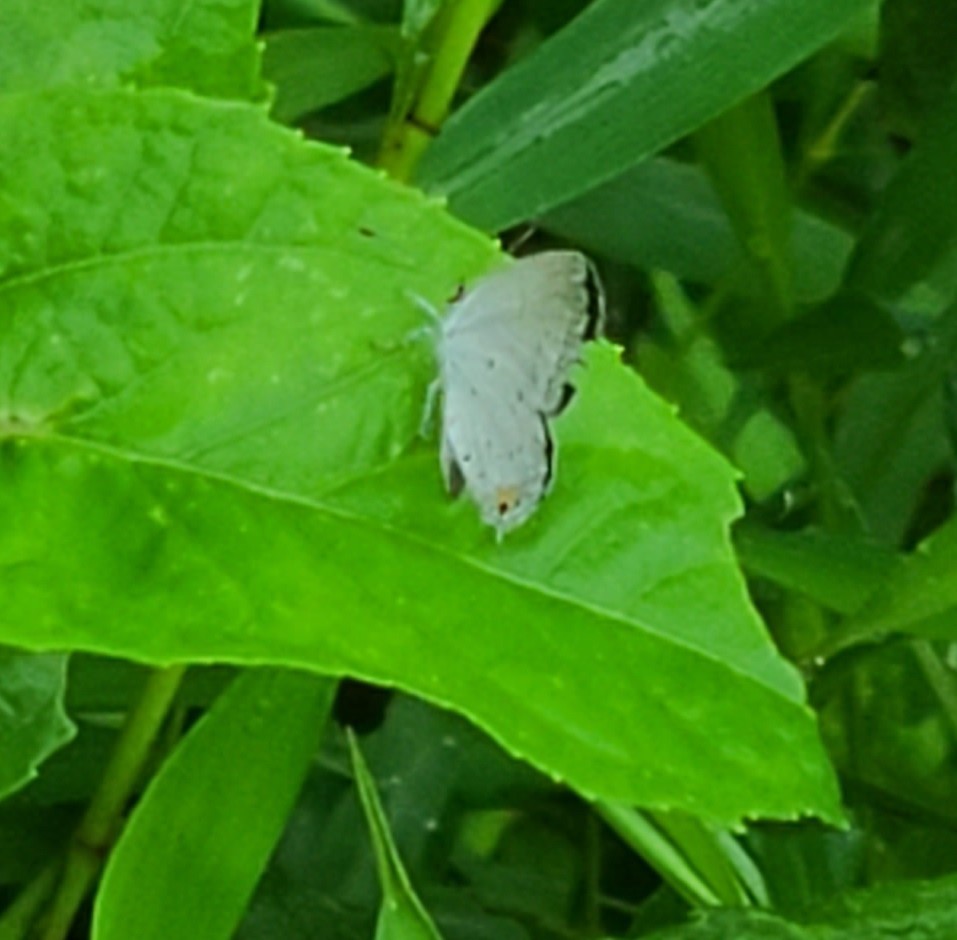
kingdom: Animalia
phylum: Arthropoda
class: Insecta
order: Lepidoptera
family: Lycaenidae
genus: Elkalyce
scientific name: Elkalyce comyntas
